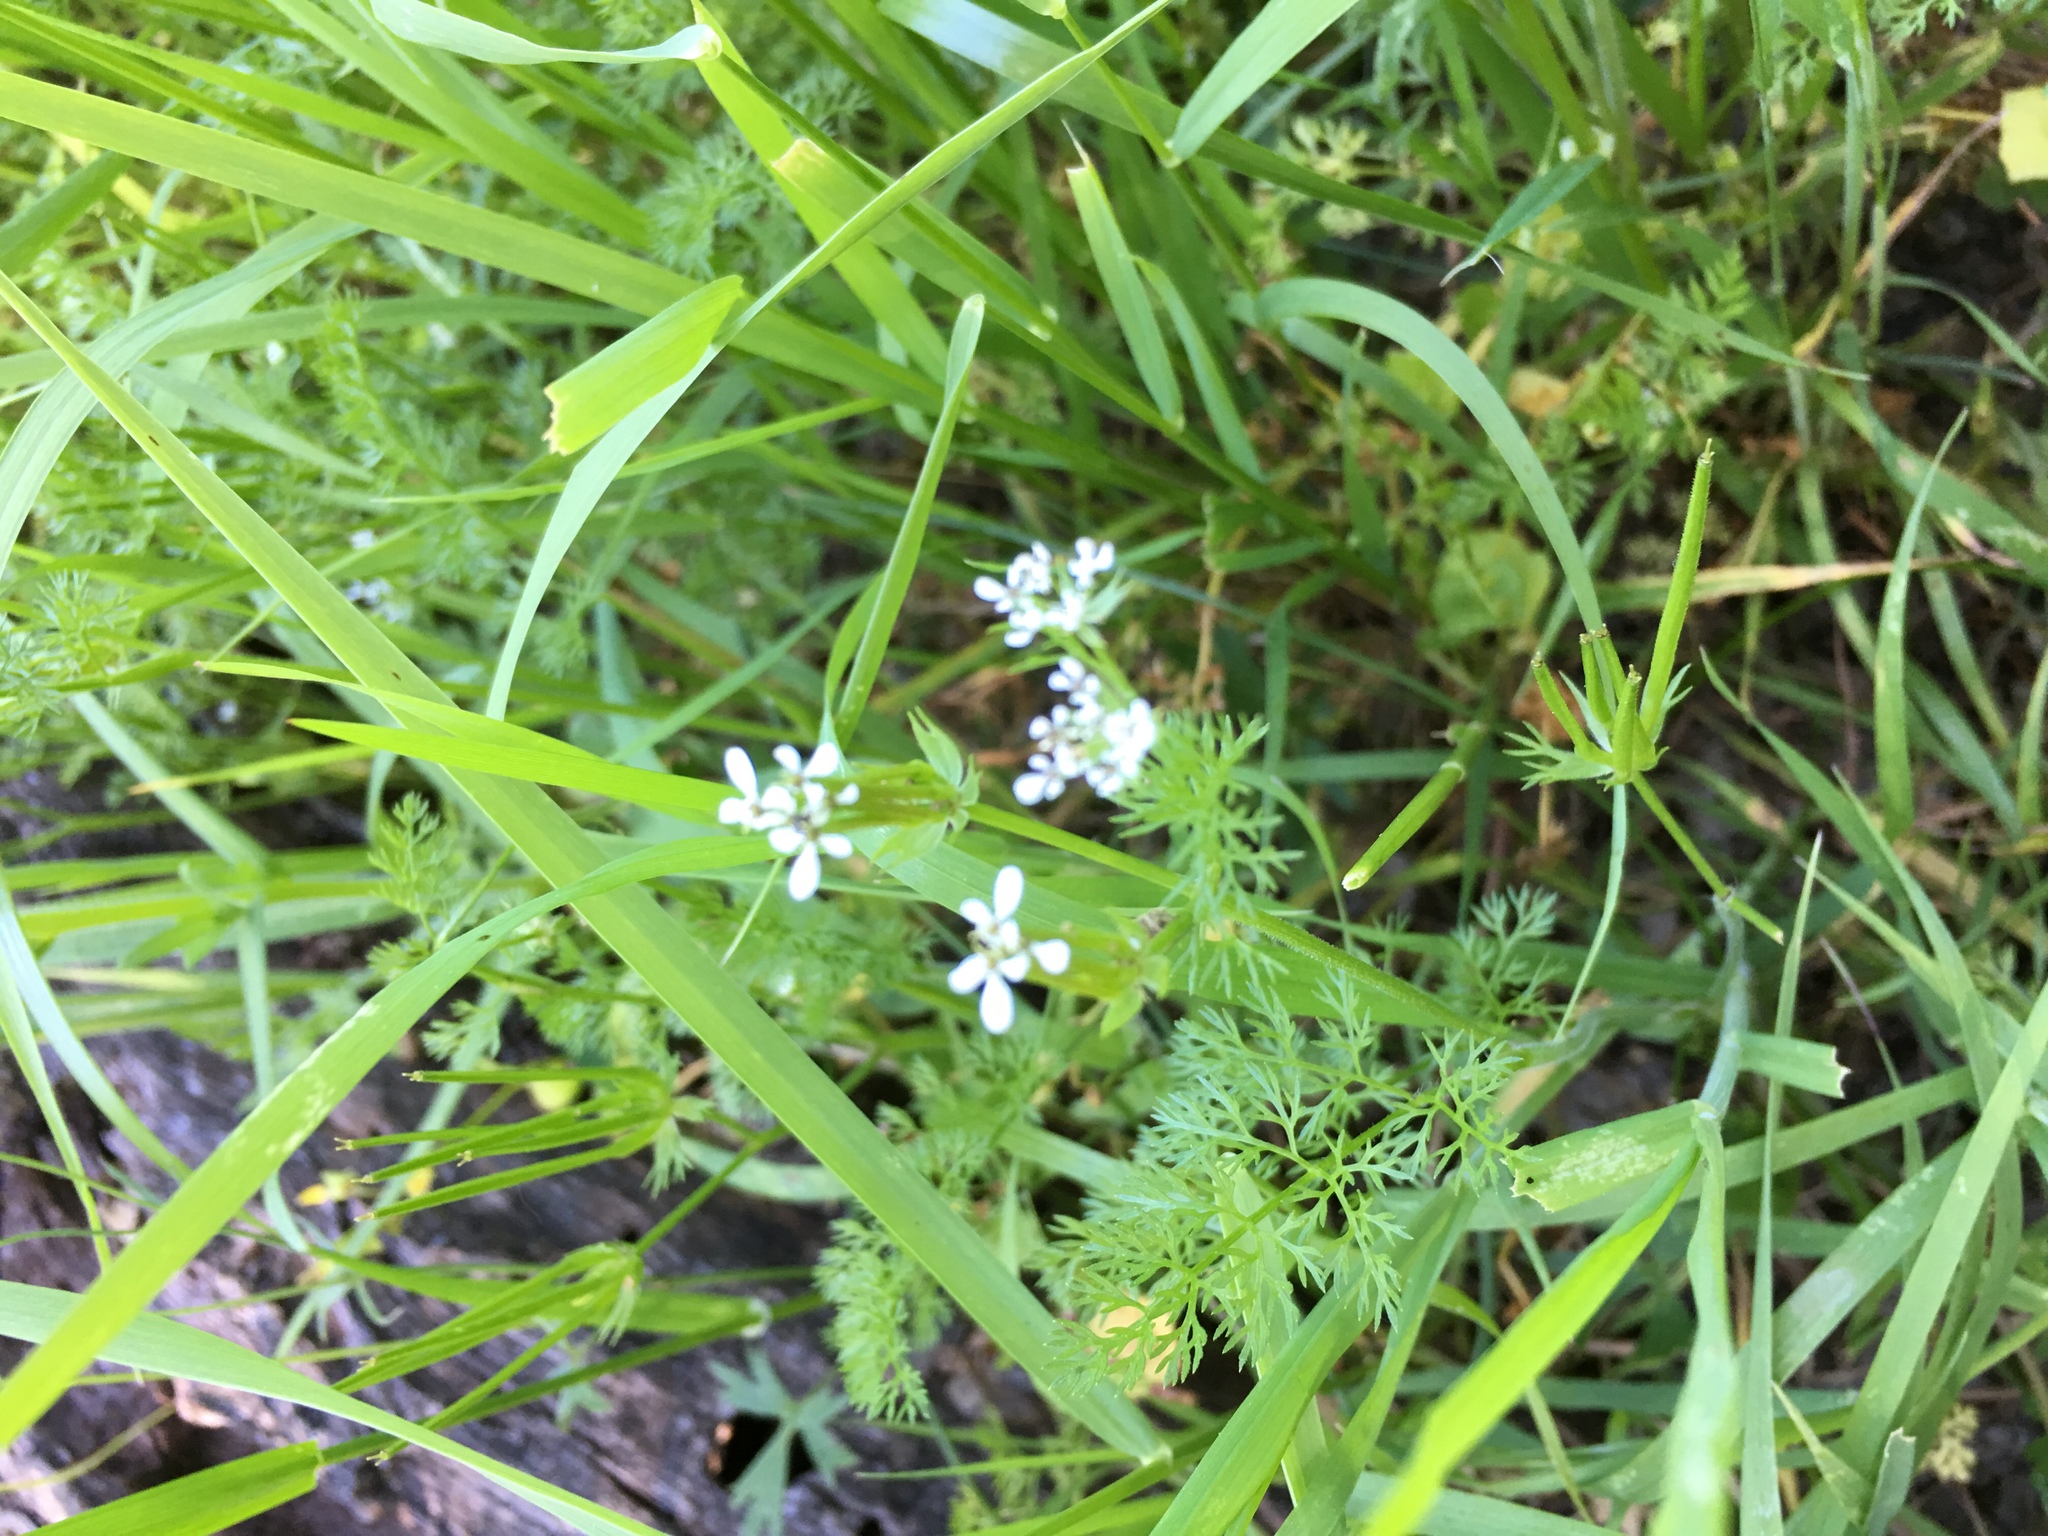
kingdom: Plantae
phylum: Tracheophyta
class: Magnoliopsida
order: Apiales
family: Apiaceae
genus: Scandix
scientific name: Scandix pecten-veneris
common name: Shepherd's-needle
